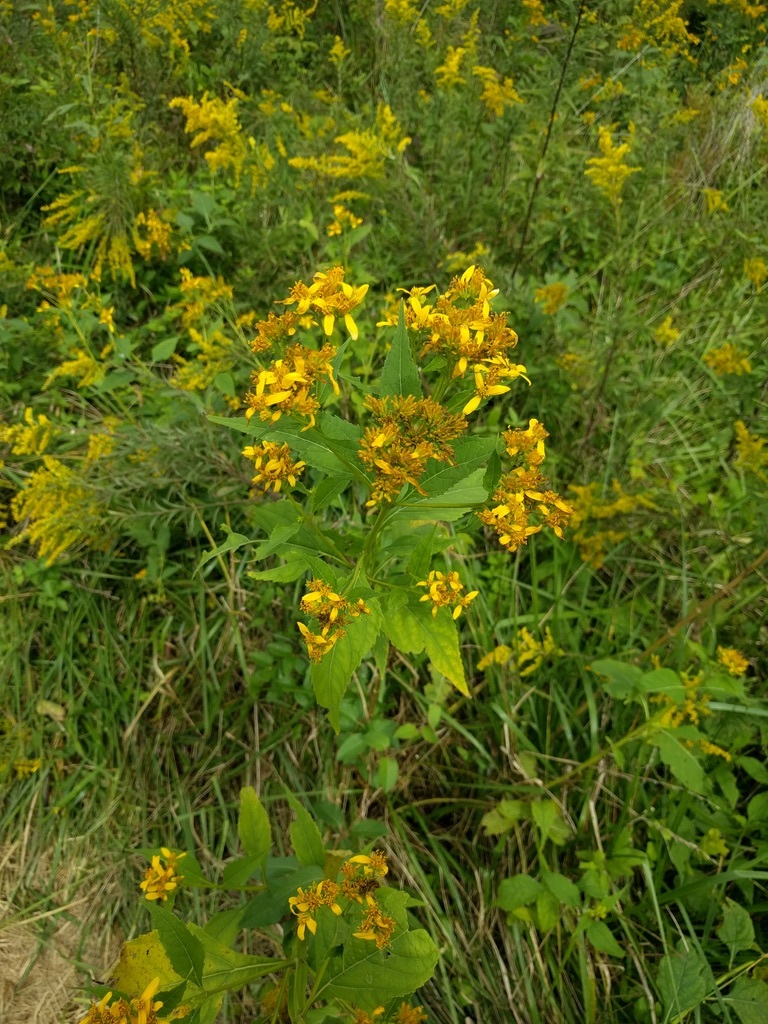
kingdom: Plantae
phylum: Tracheophyta
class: Magnoliopsida
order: Asterales
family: Asteraceae
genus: Verbesina
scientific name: Verbesina occidentalis
